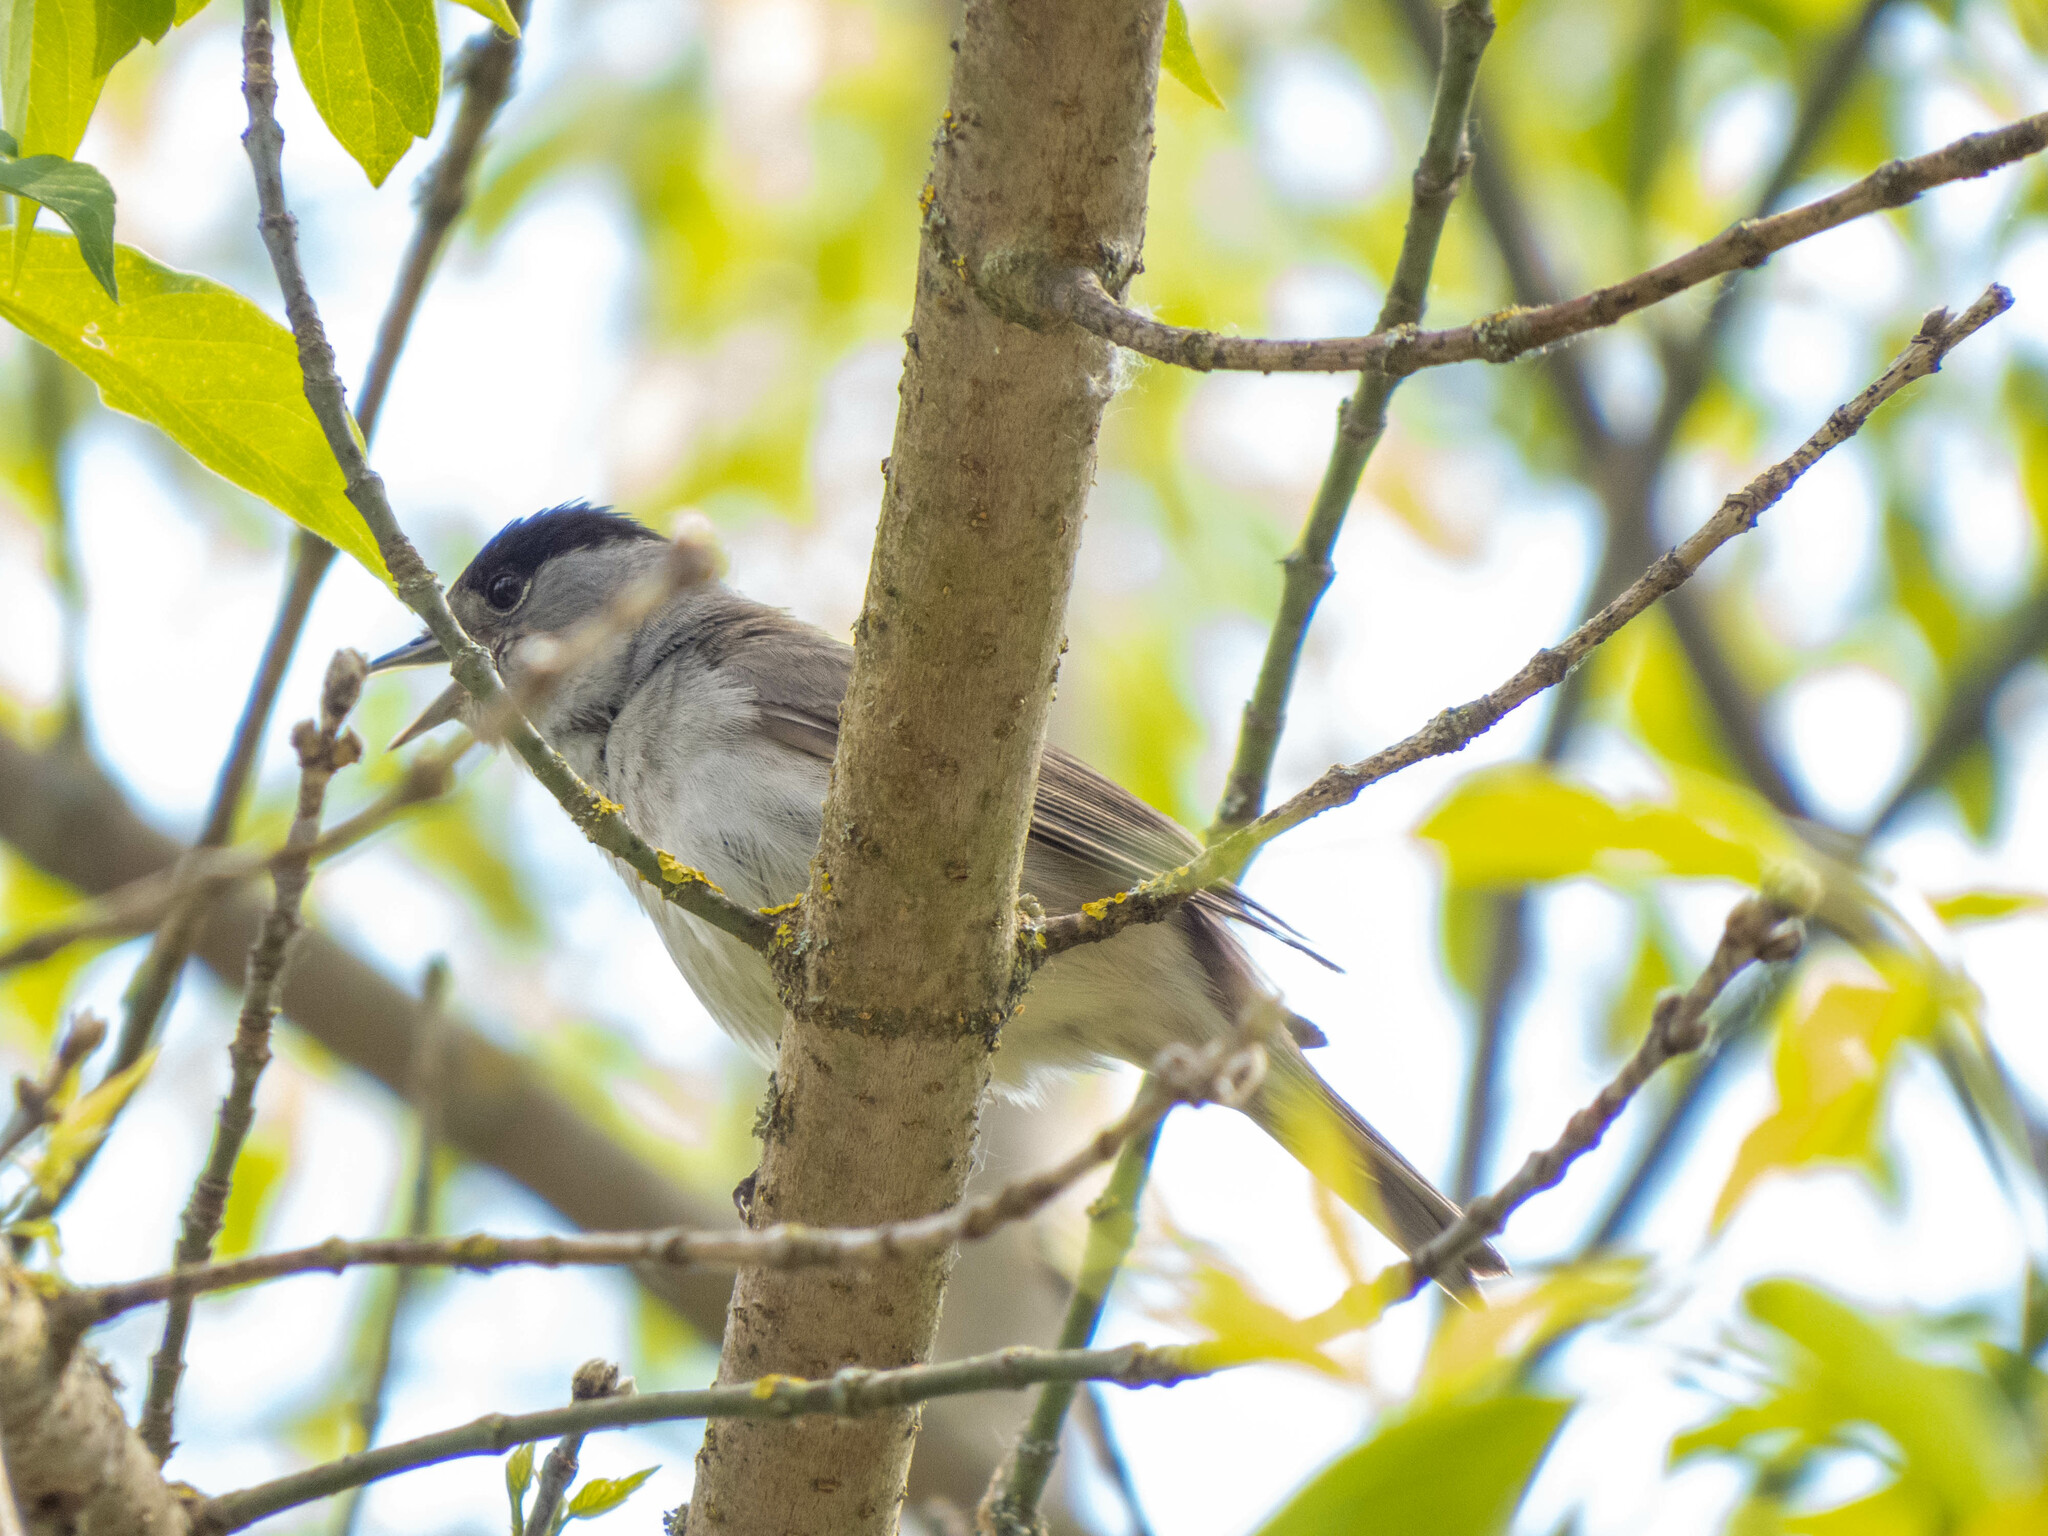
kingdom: Animalia
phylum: Chordata
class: Aves
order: Passeriformes
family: Sylviidae
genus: Sylvia
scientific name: Sylvia atricapilla
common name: Eurasian blackcap
